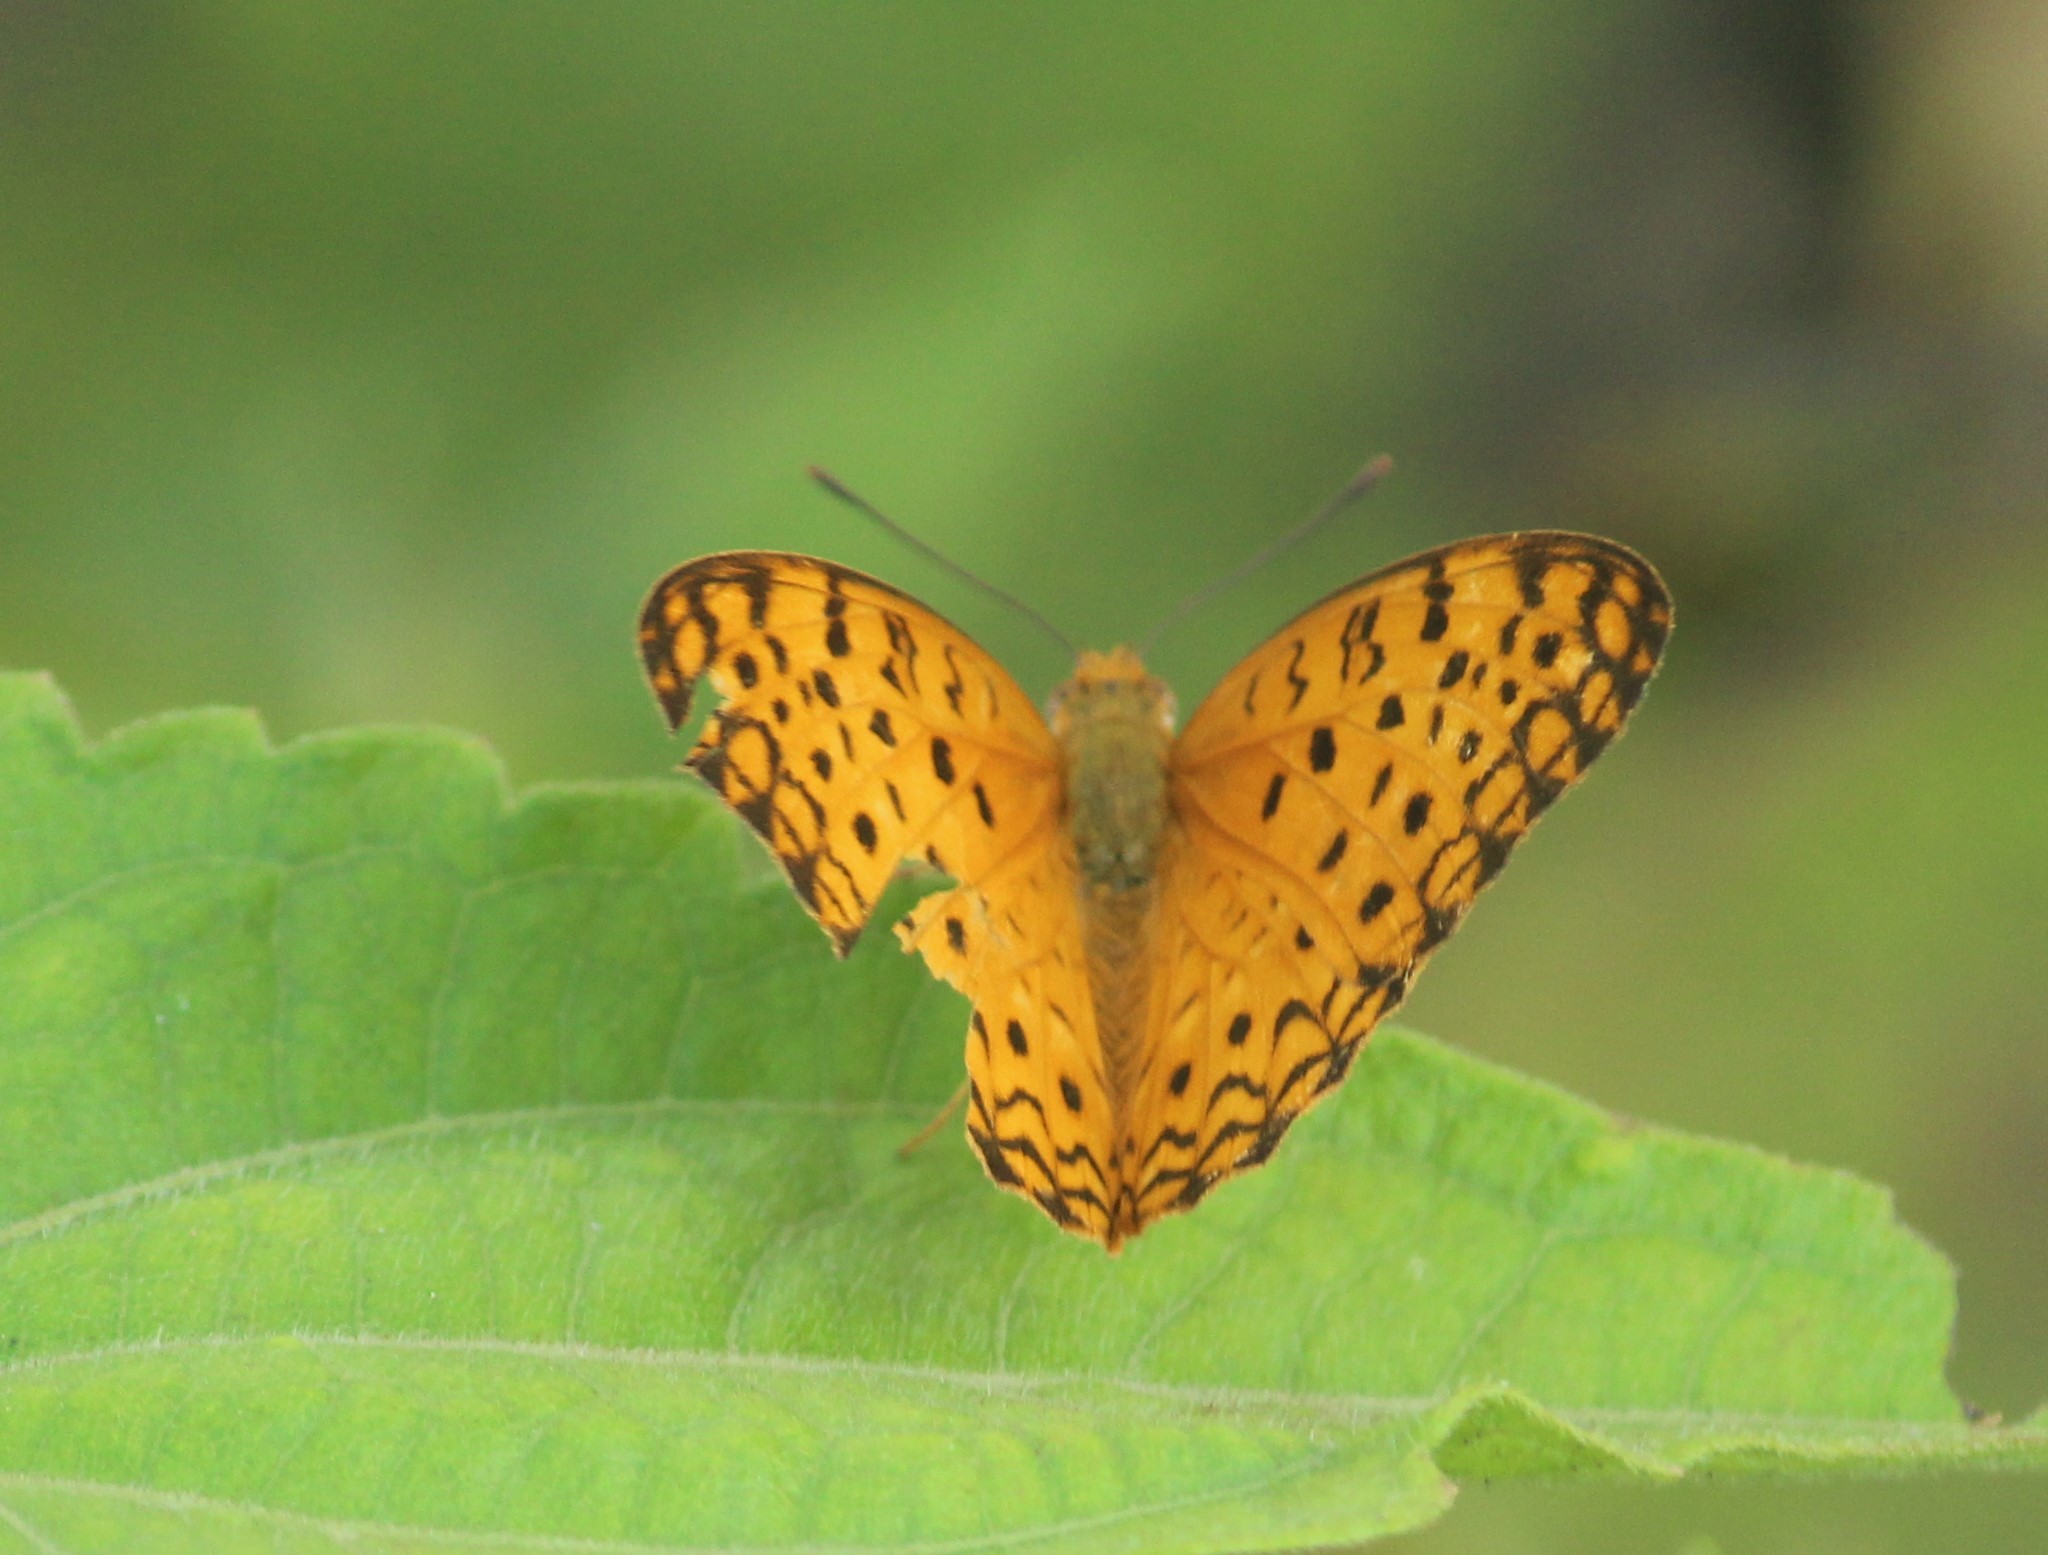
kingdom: Animalia
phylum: Arthropoda
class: Insecta
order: Lepidoptera
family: Nymphalidae
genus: Phalanta
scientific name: Phalanta phalantha
